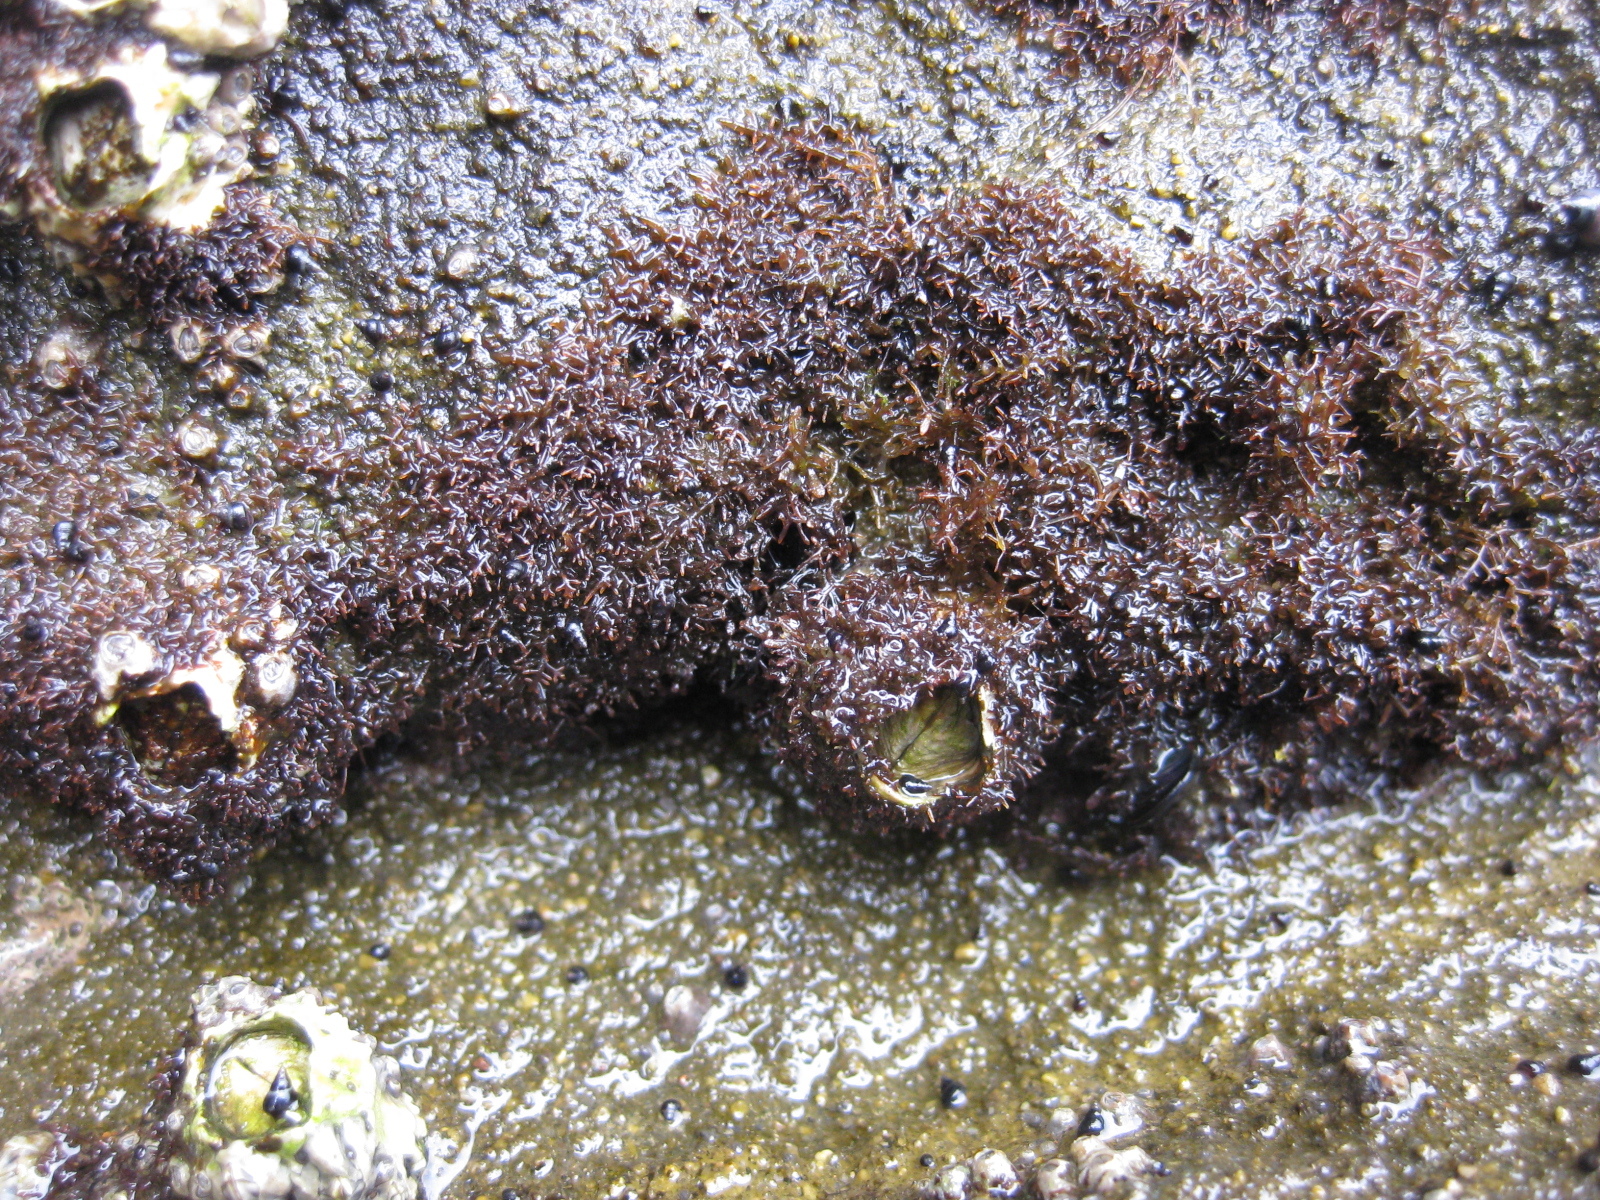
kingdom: Plantae
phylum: Rhodophyta
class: Florideophyceae
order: Gelidiales
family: Gelidiaceae
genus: Capreolia
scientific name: Capreolia implexa
